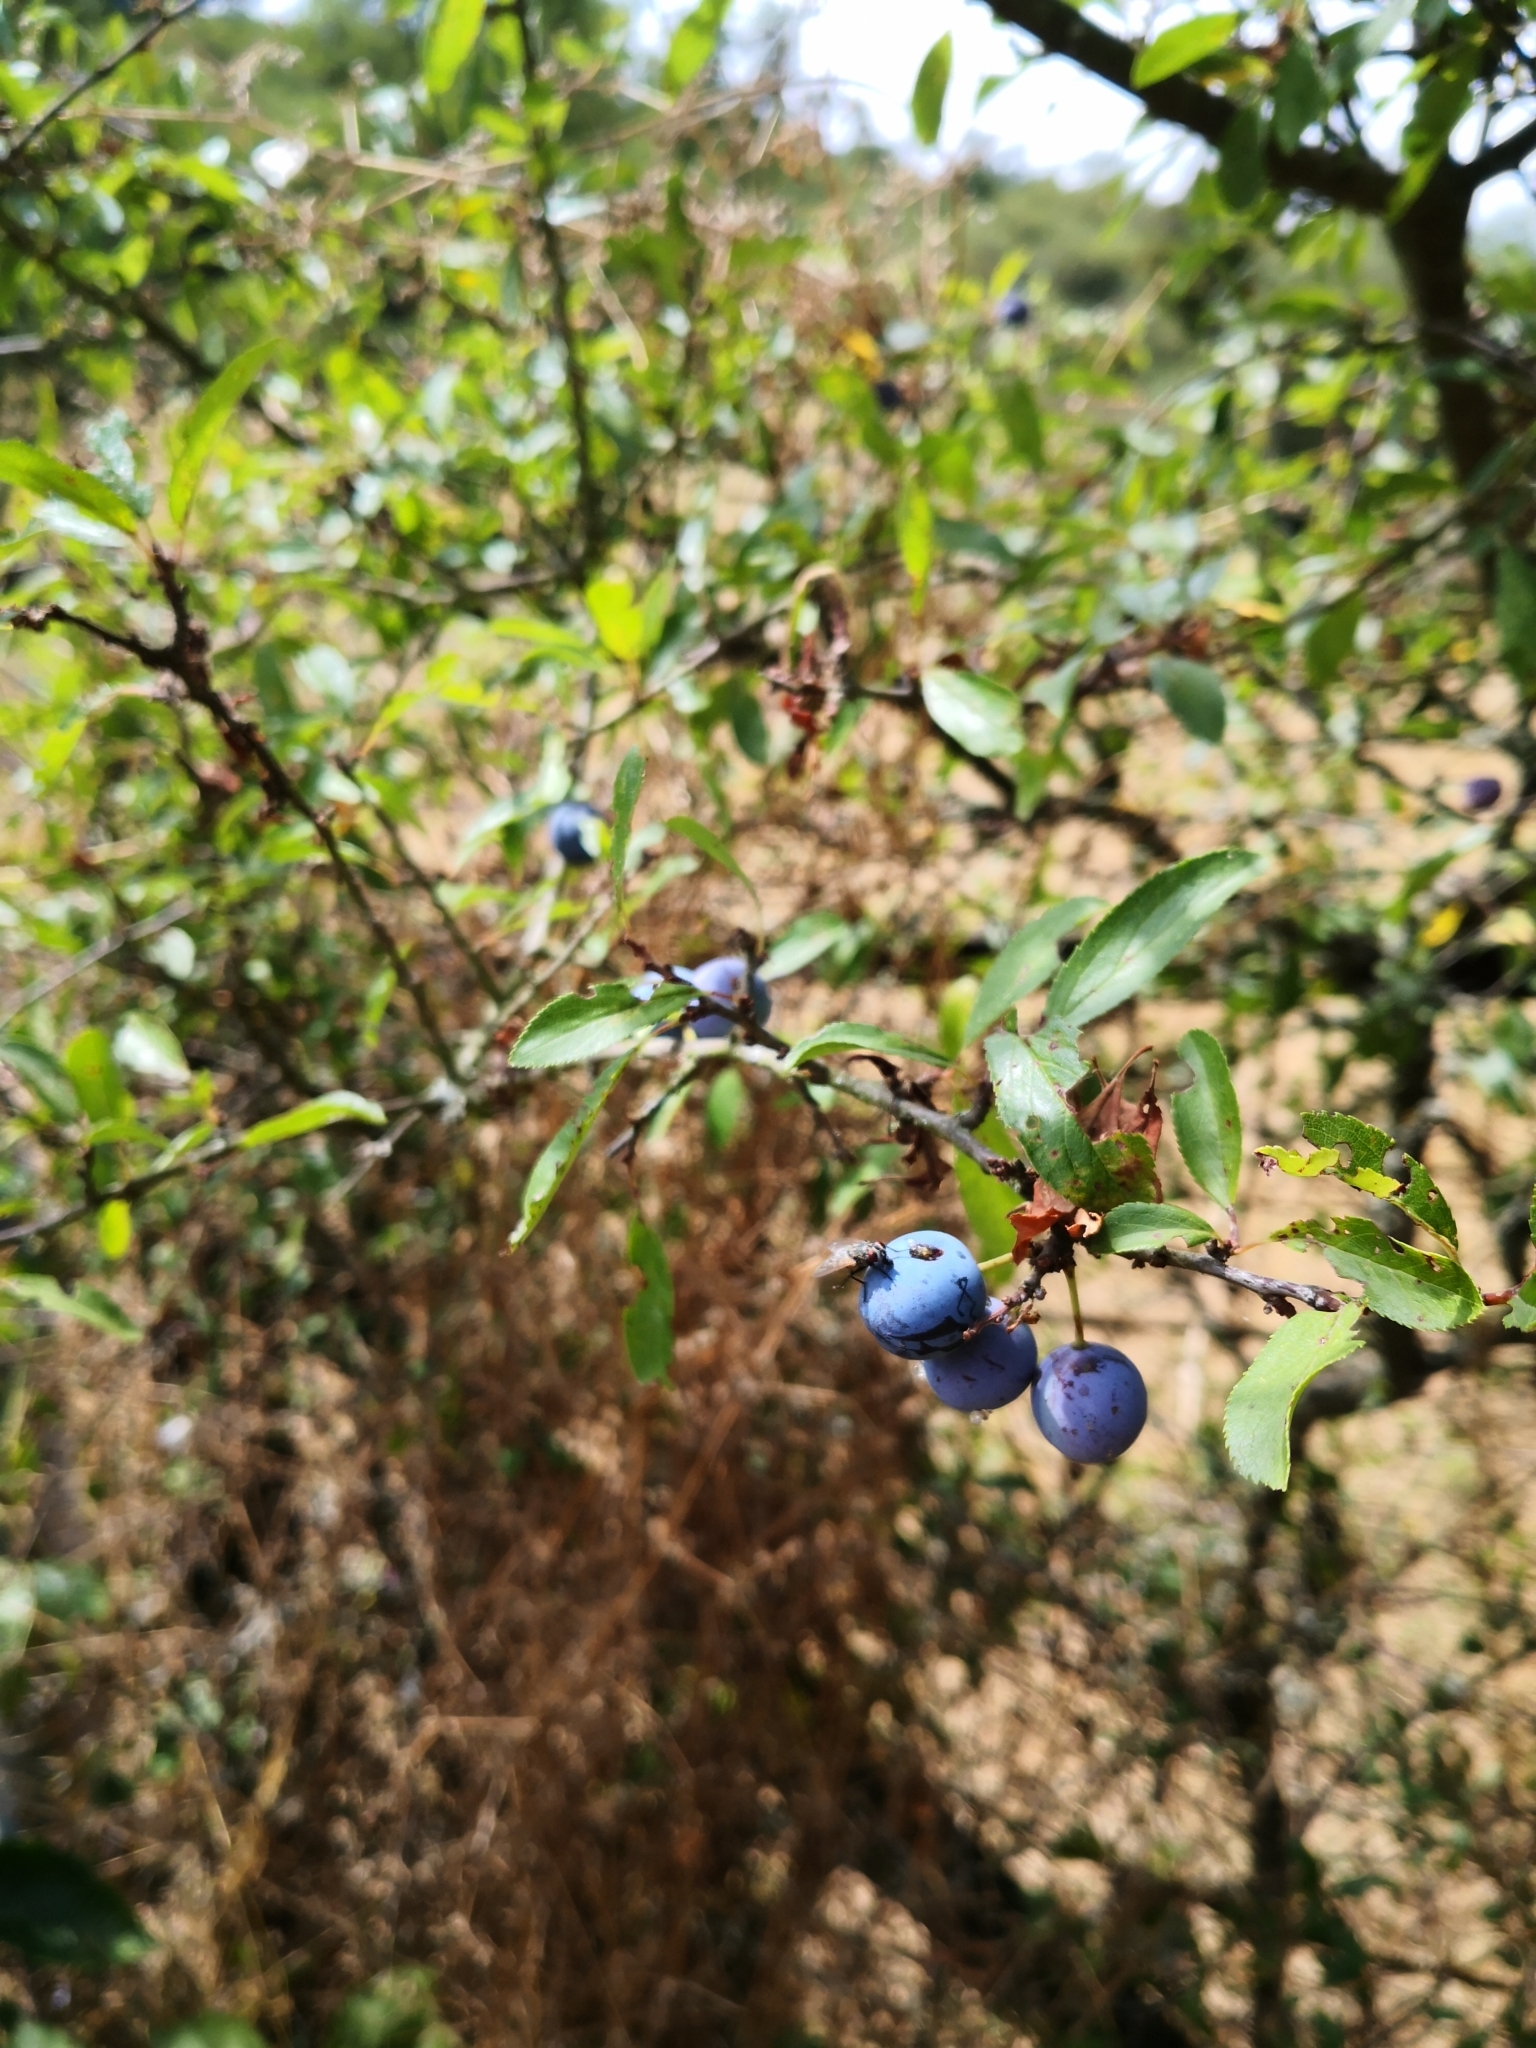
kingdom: Plantae
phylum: Tracheophyta
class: Magnoliopsida
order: Rosales
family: Rosaceae
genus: Prunus
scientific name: Prunus spinosa
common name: Blackthorn
